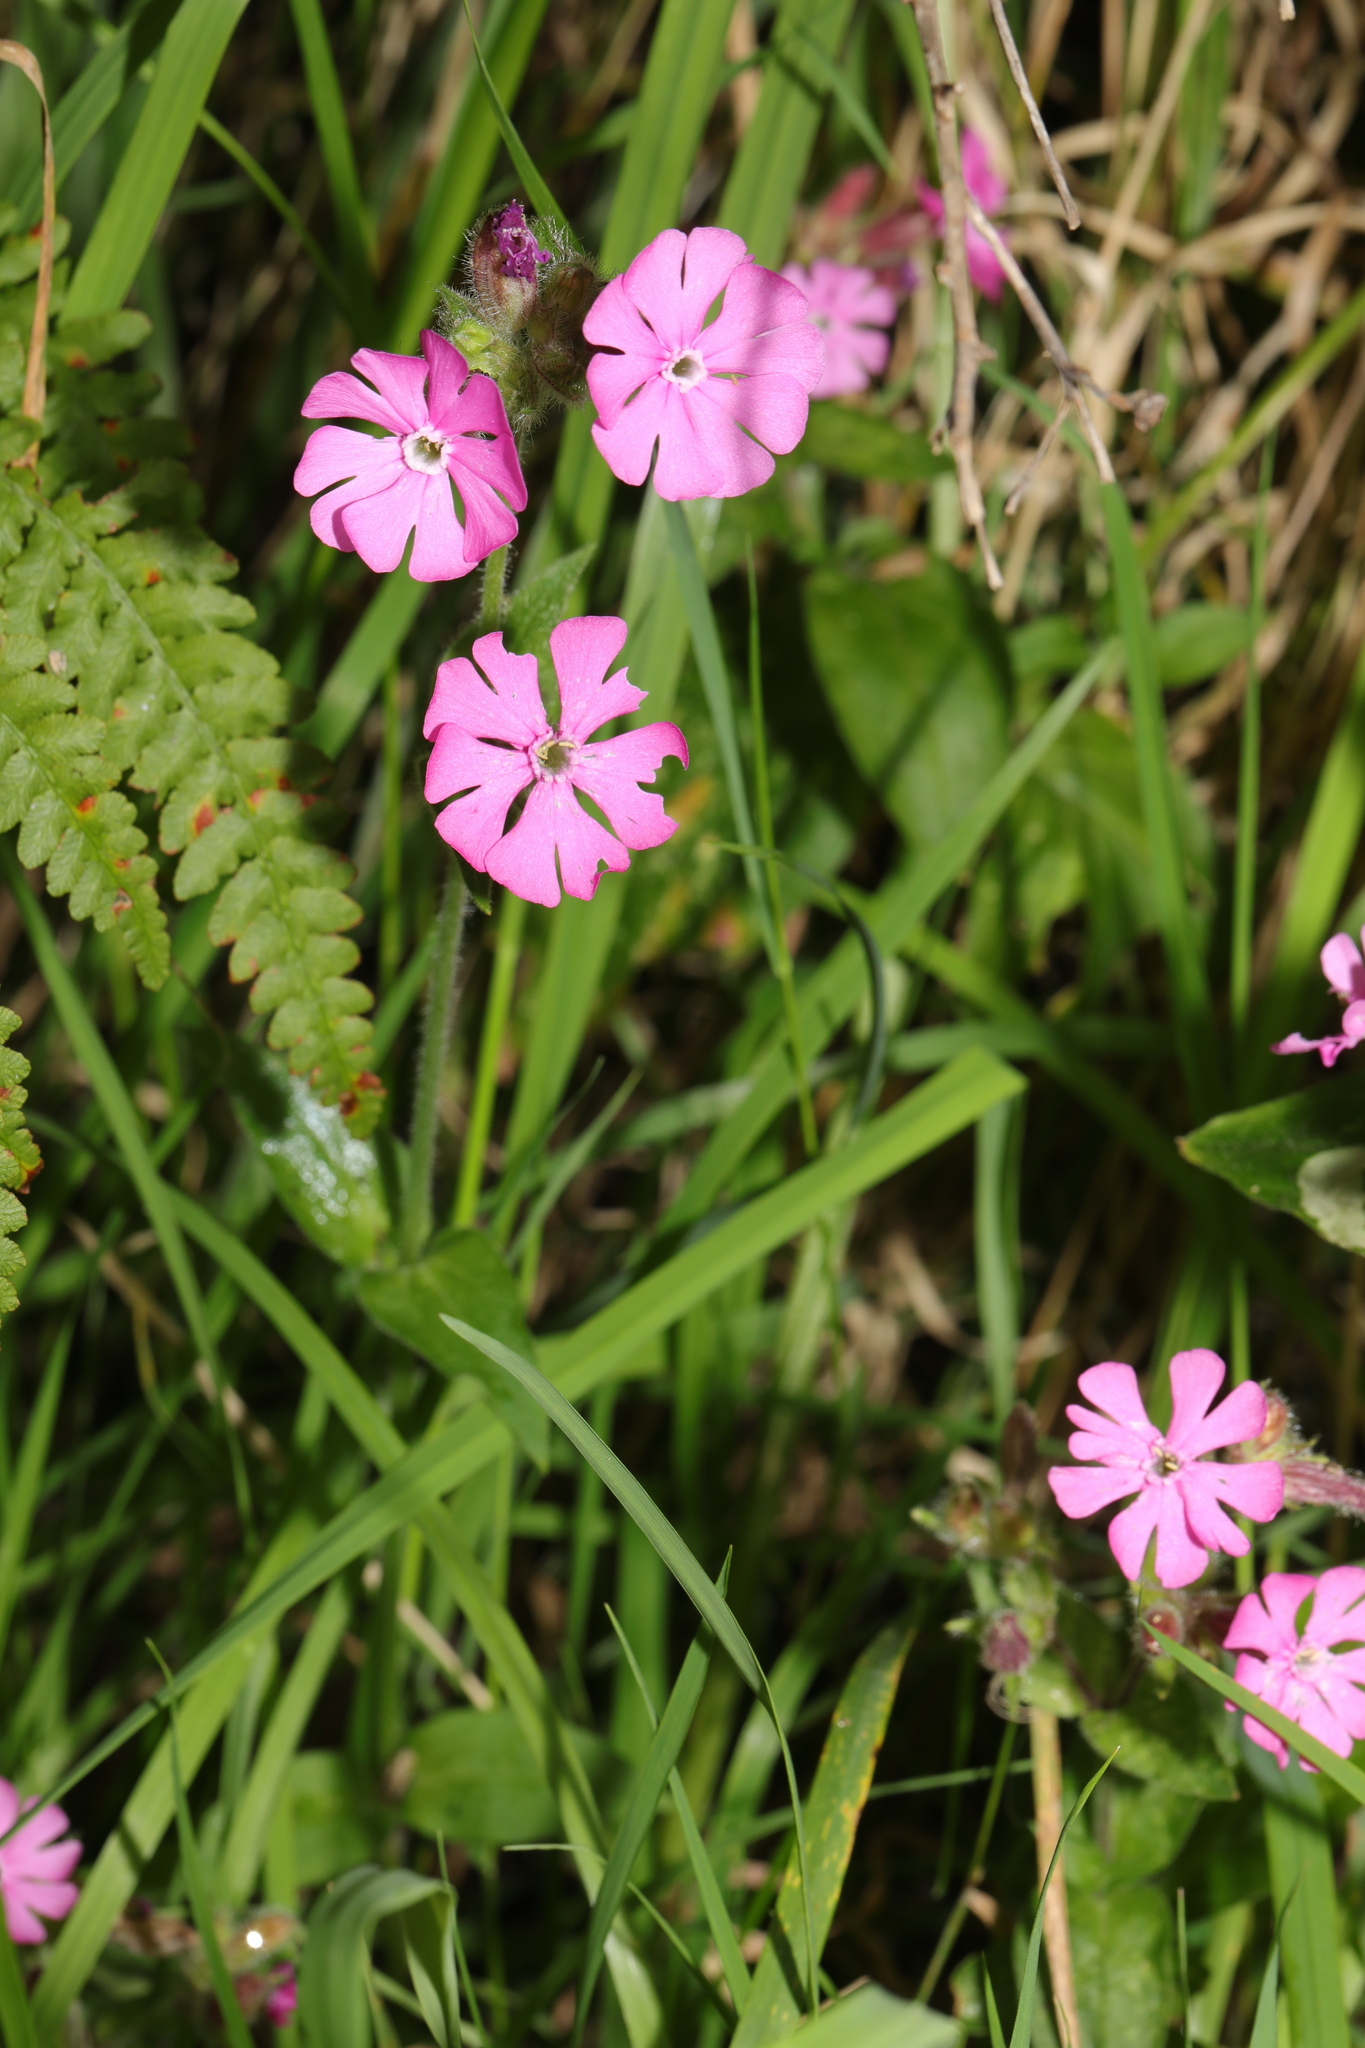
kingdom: Plantae
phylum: Tracheophyta
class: Magnoliopsida
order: Caryophyllales
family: Caryophyllaceae
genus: Silene
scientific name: Silene dioica
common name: Red campion
